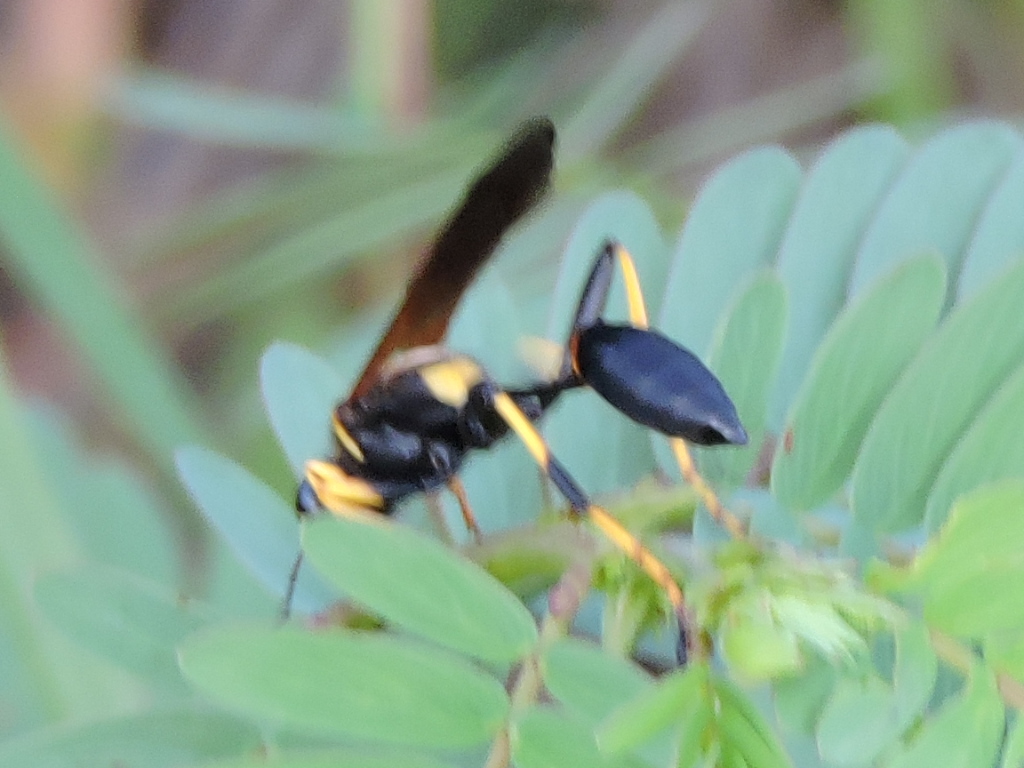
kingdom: Animalia
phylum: Arthropoda
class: Insecta
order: Hymenoptera
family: Sphecidae
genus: Sceliphron
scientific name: Sceliphron caementarium
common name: Mud dauber
